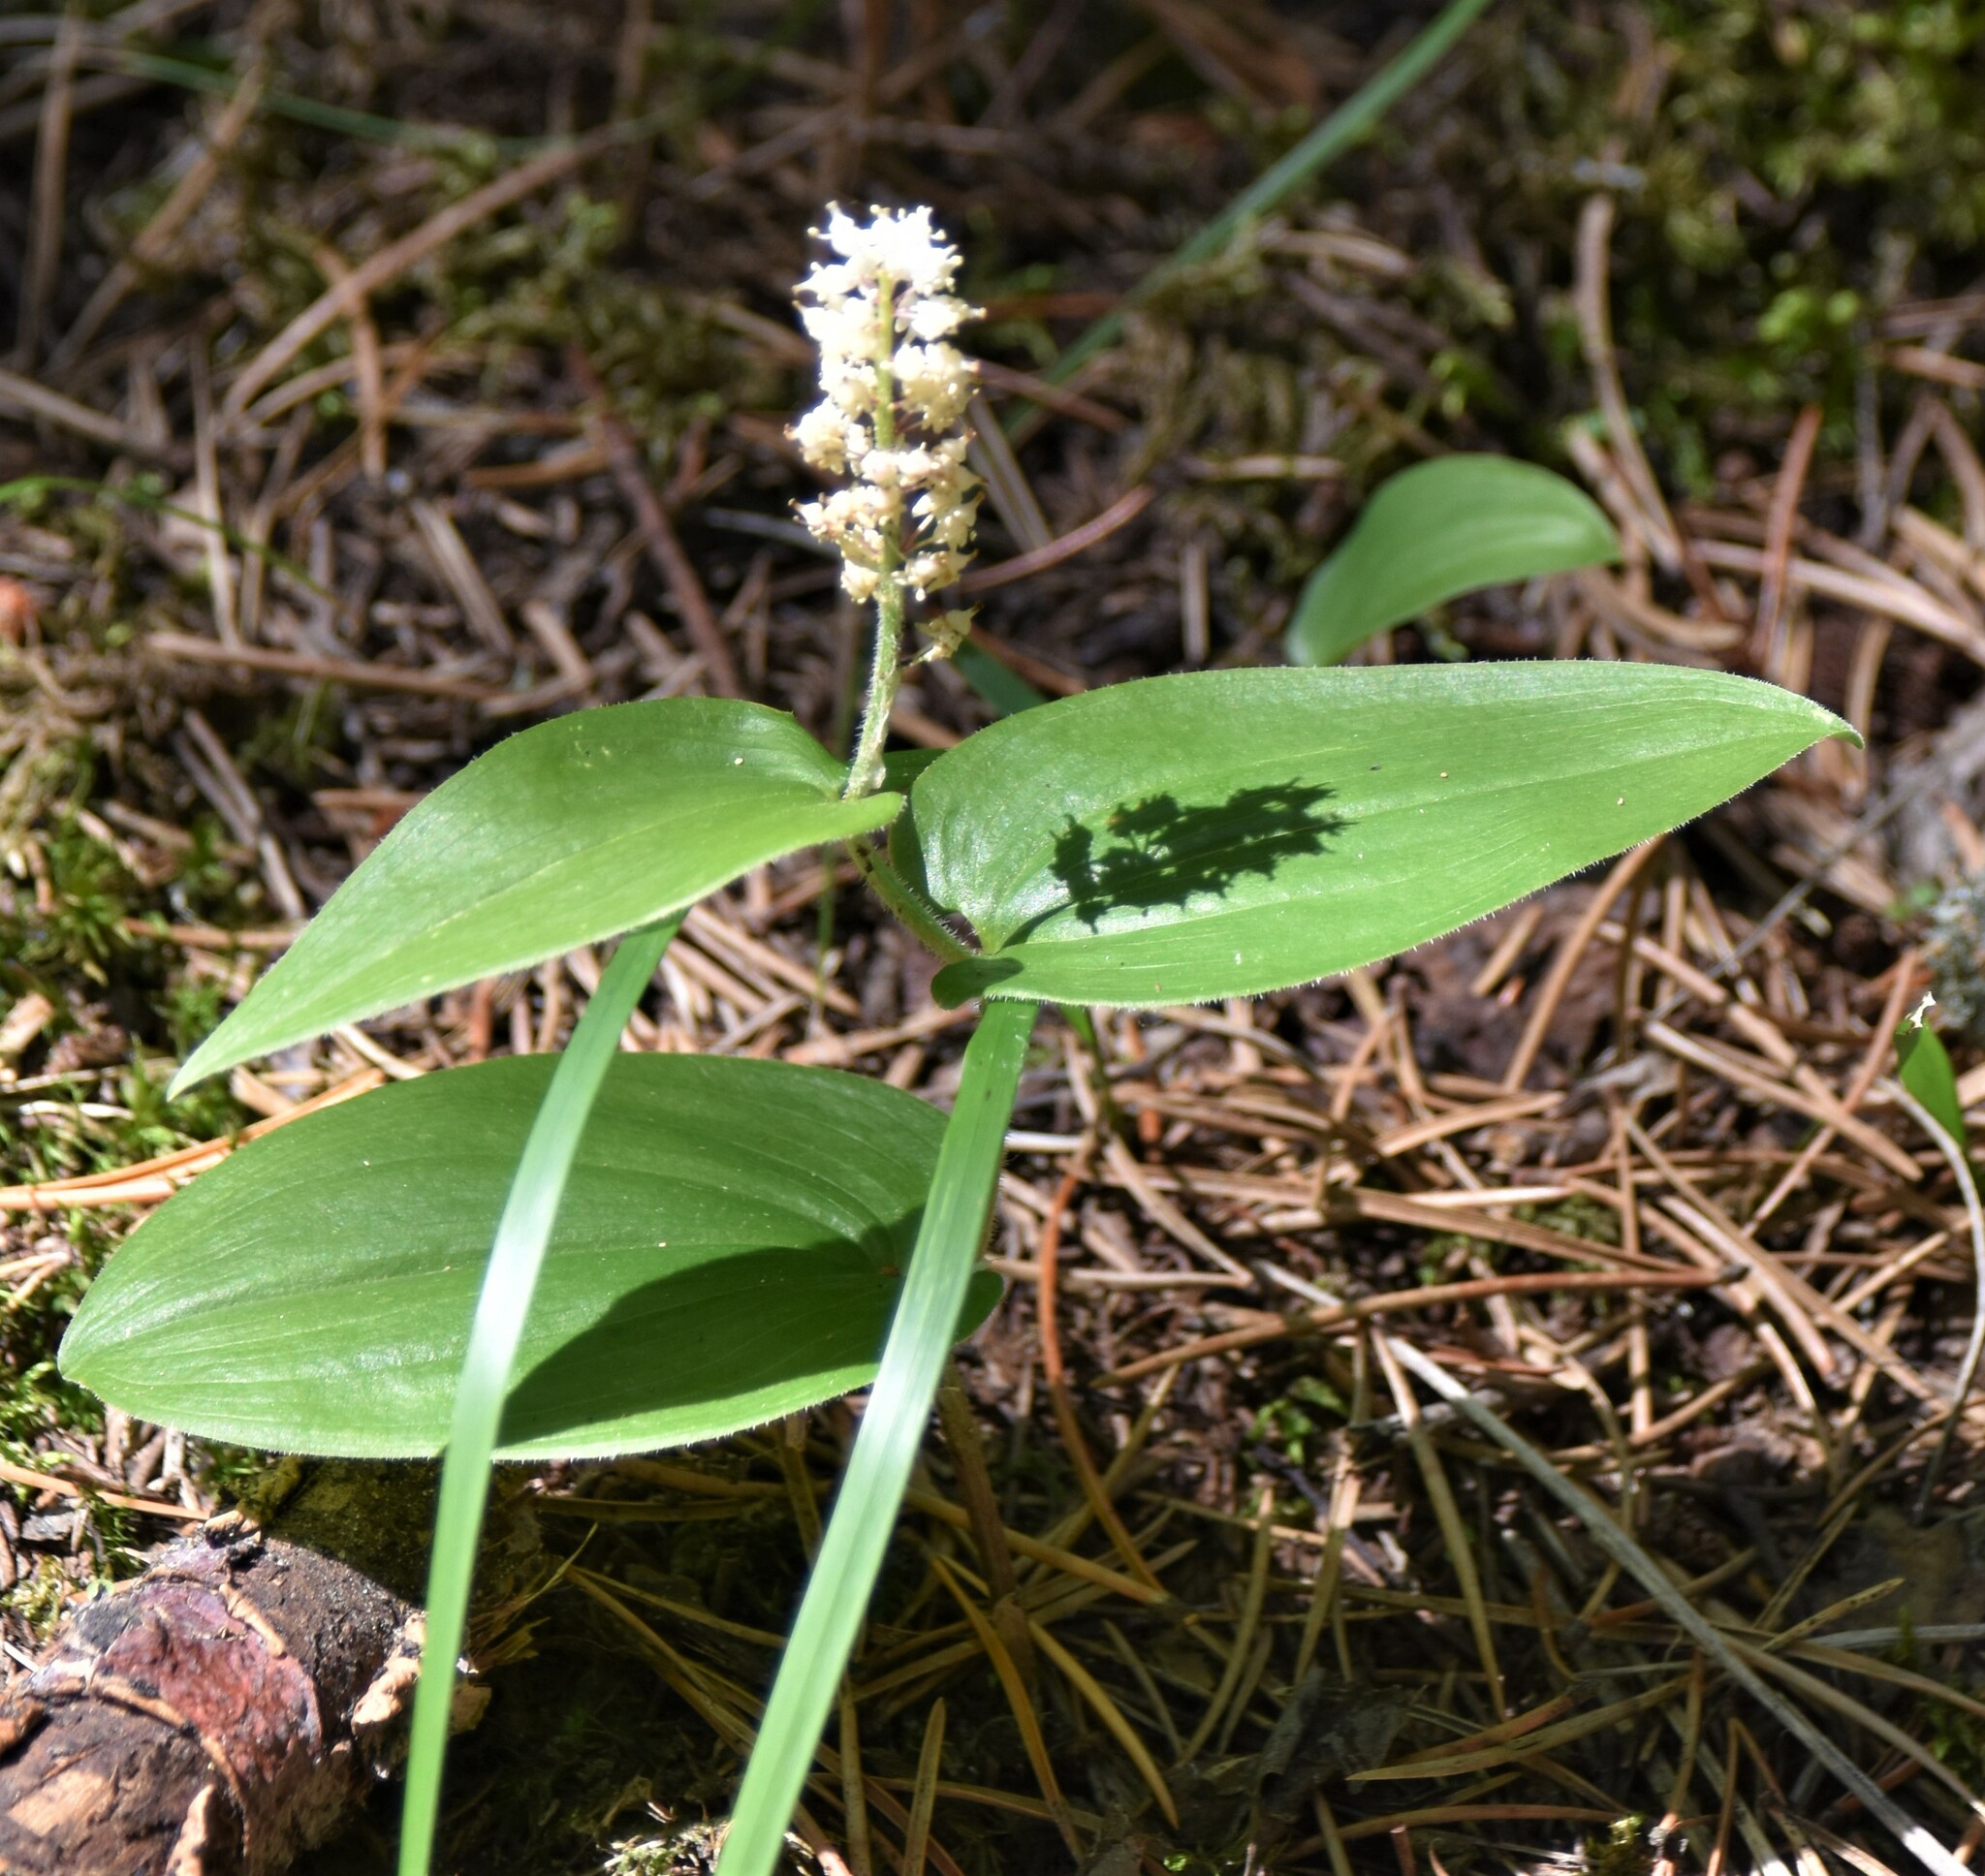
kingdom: Plantae
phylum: Tracheophyta
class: Liliopsida
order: Asparagales
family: Asparagaceae
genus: Maianthemum
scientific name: Maianthemum canadense
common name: False lily-of-the-valley
